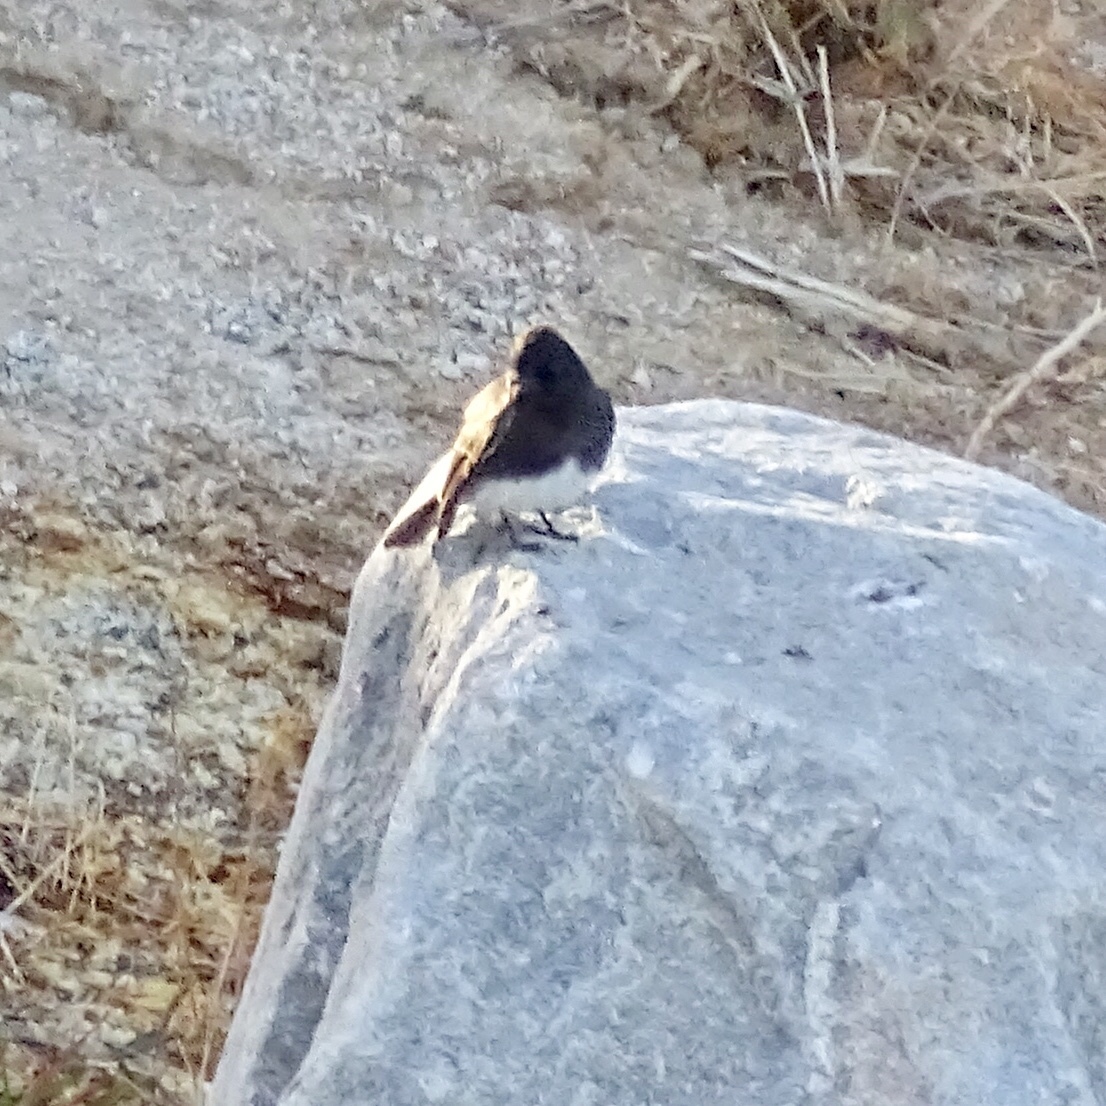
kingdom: Animalia
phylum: Chordata
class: Aves
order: Passeriformes
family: Tyrannidae
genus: Sayornis
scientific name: Sayornis nigricans
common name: Black phoebe
